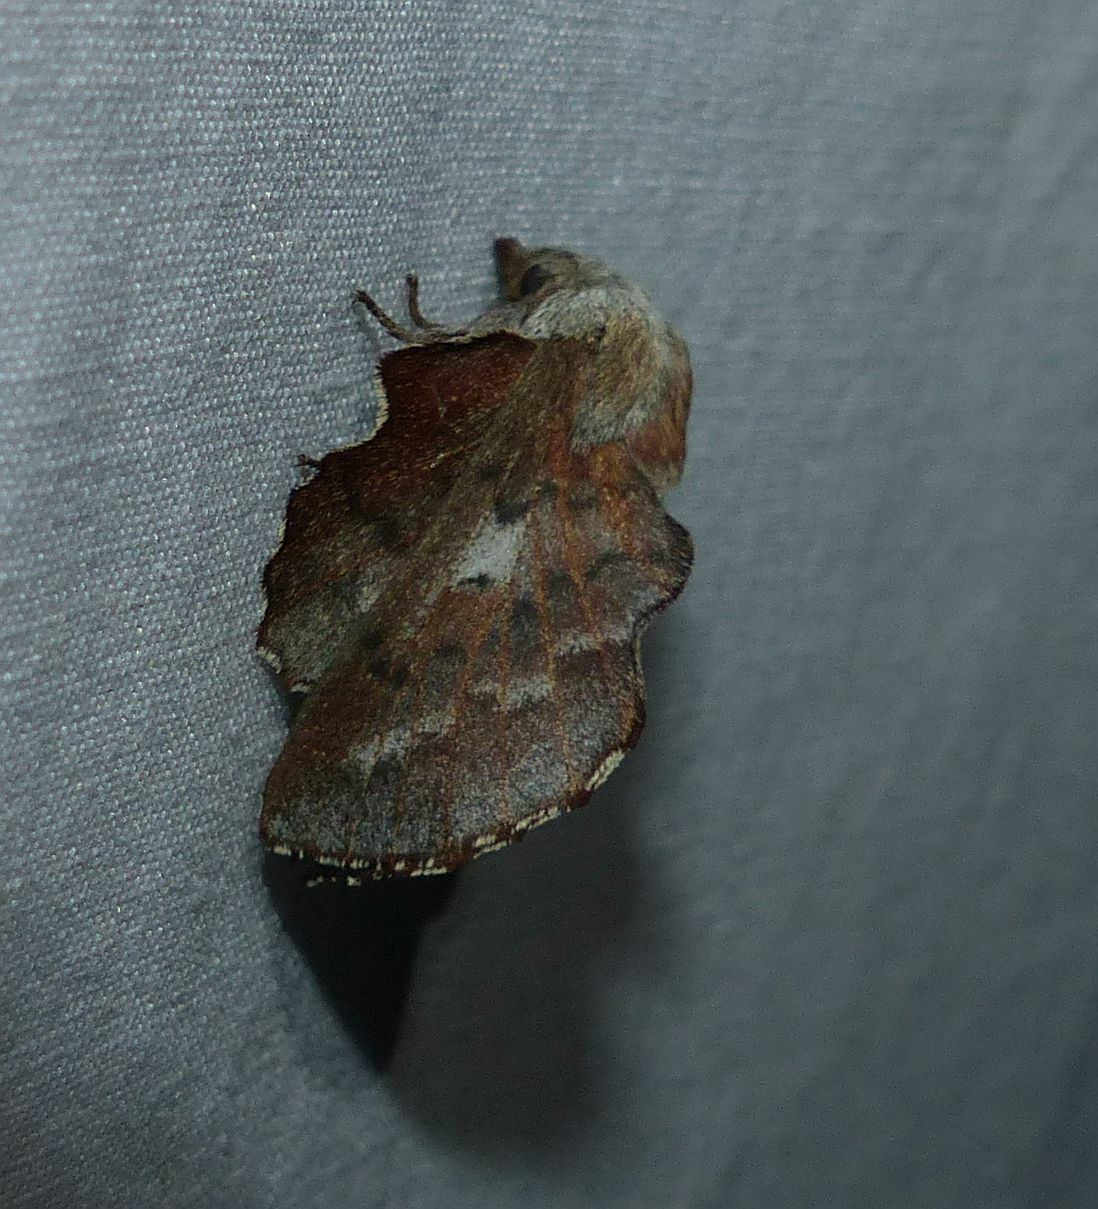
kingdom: Animalia
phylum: Arthropoda
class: Insecta
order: Lepidoptera
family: Lasiocampidae
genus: Phyllodesma
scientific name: Phyllodesma americana
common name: American lappet moth
